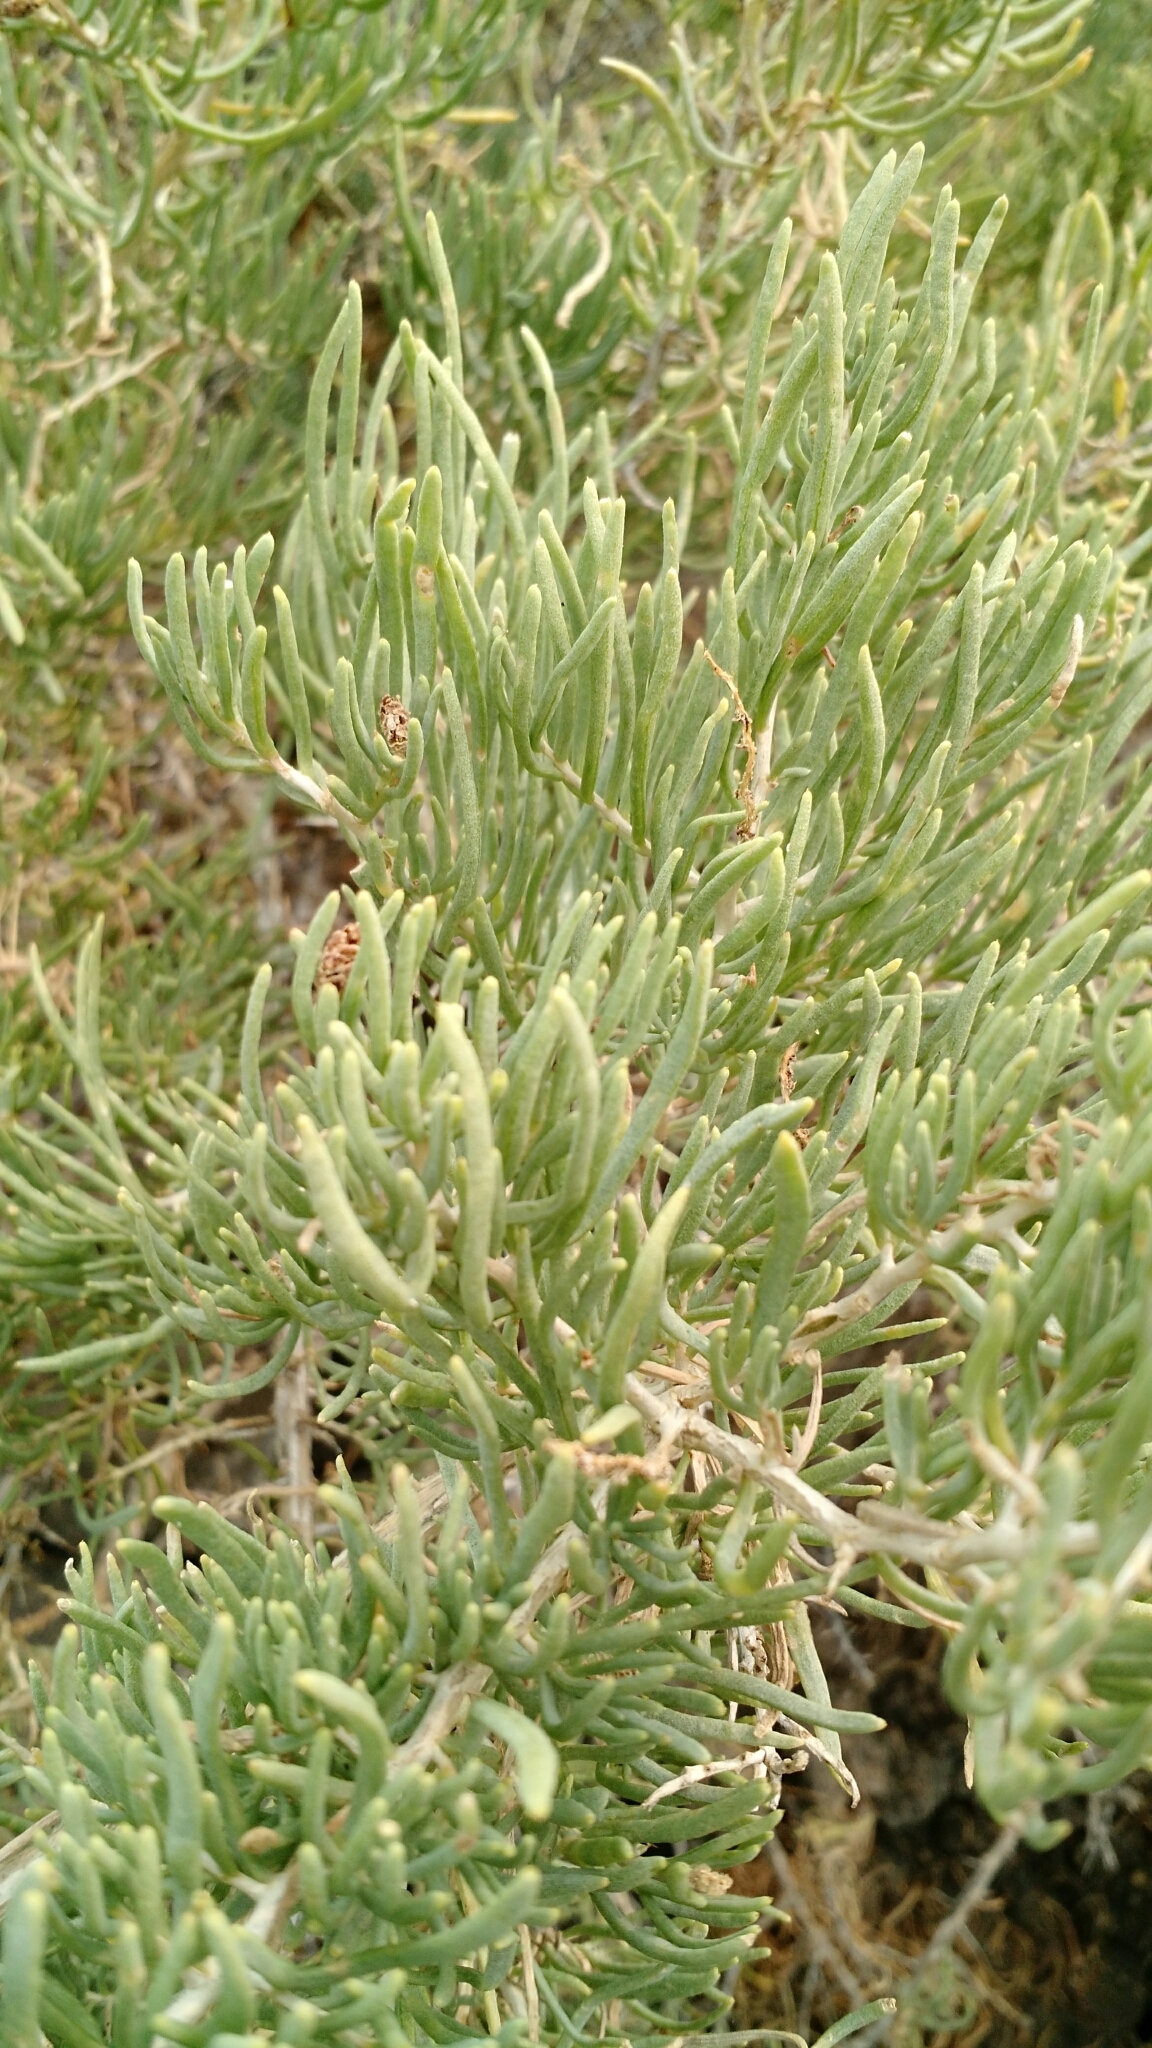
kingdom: Plantae
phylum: Tracheophyta
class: Magnoliopsida
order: Caryophyllales
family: Sarcobataceae
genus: Sarcobatus
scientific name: Sarcobatus vermiculatus
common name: Greasewood
